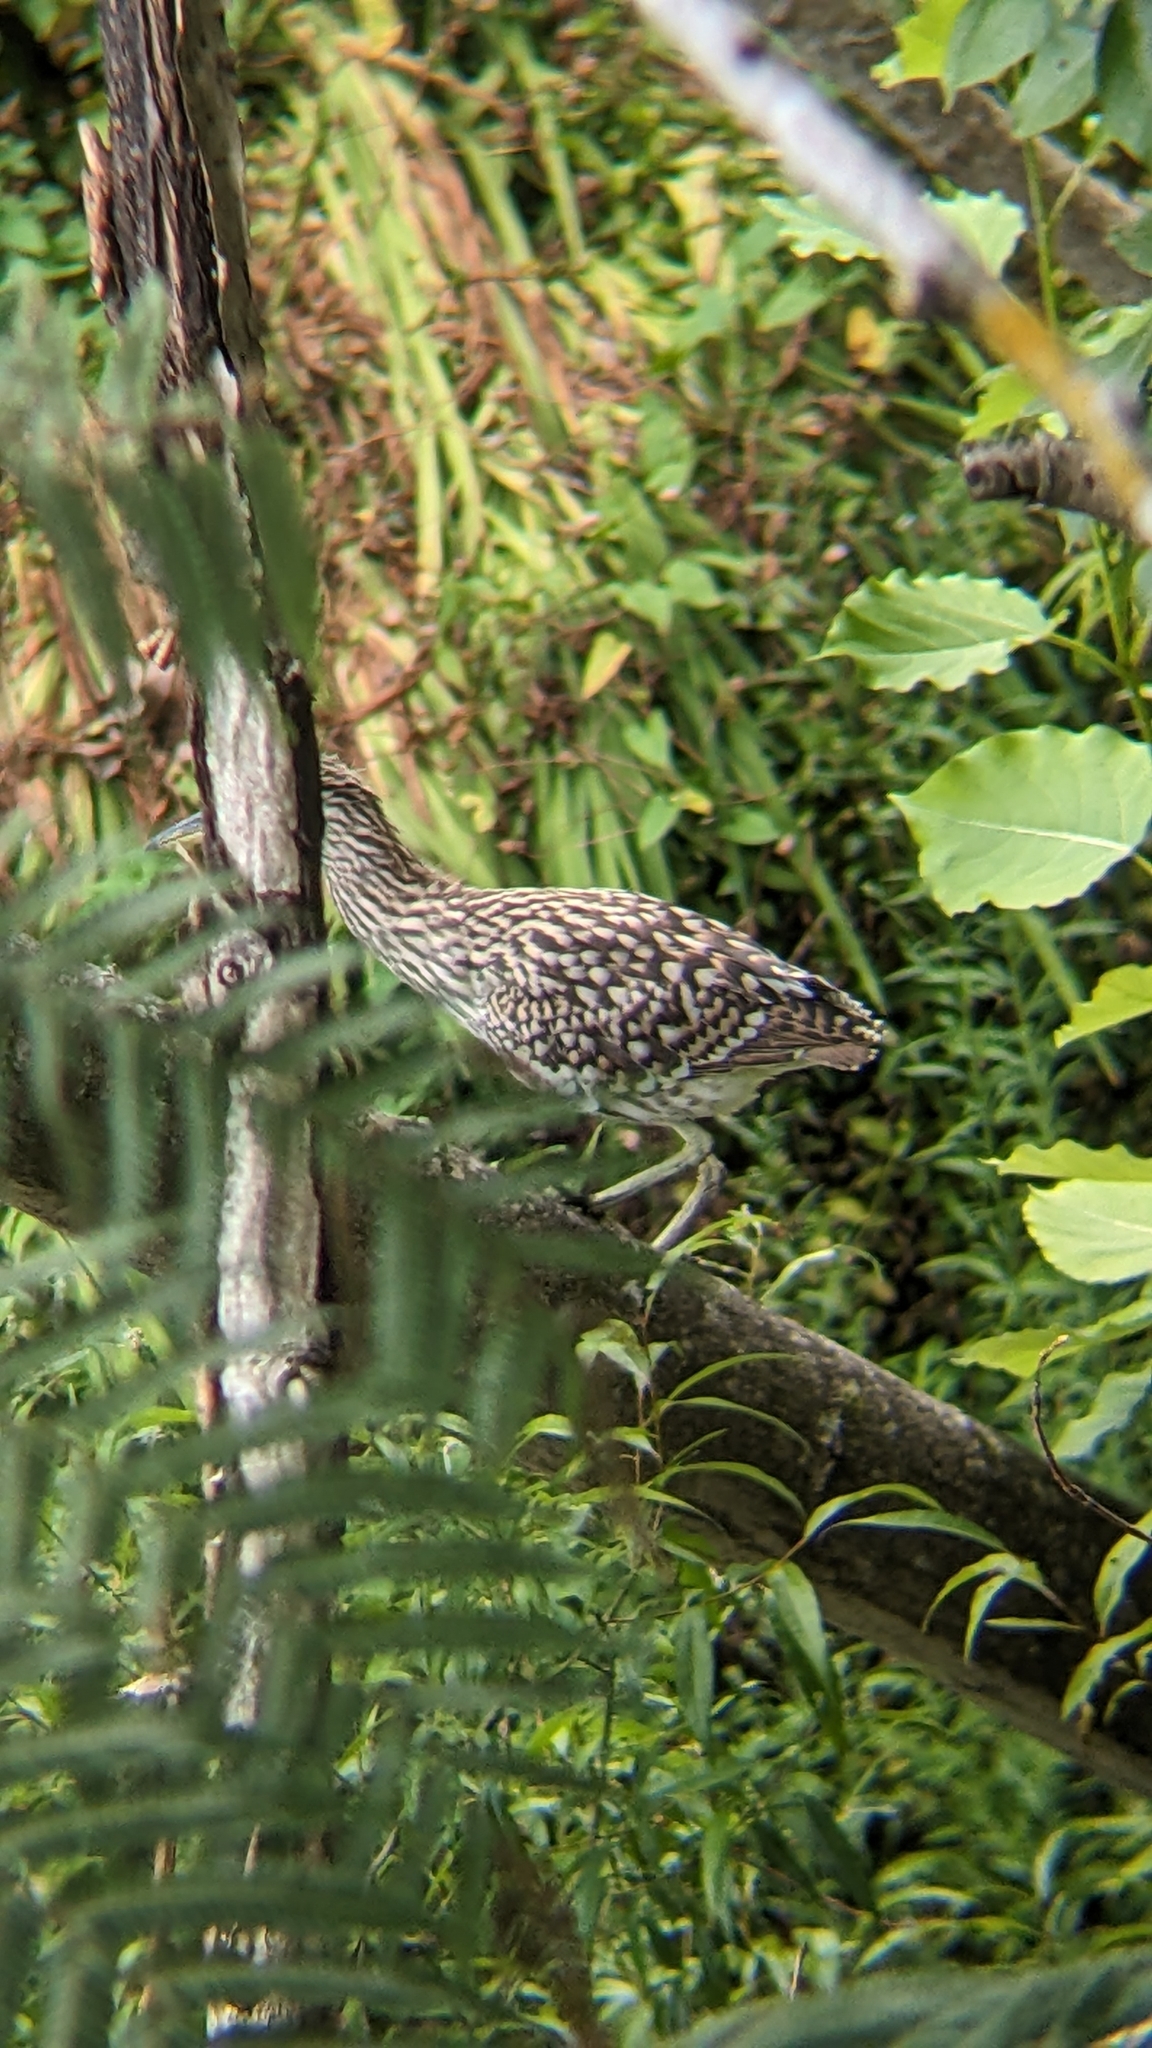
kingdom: Animalia
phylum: Chordata
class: Aves
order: Pelecaniformes
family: Ardeidae
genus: Nycticorax
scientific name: Nycticorax caledonicus
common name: Rufous night-heron
